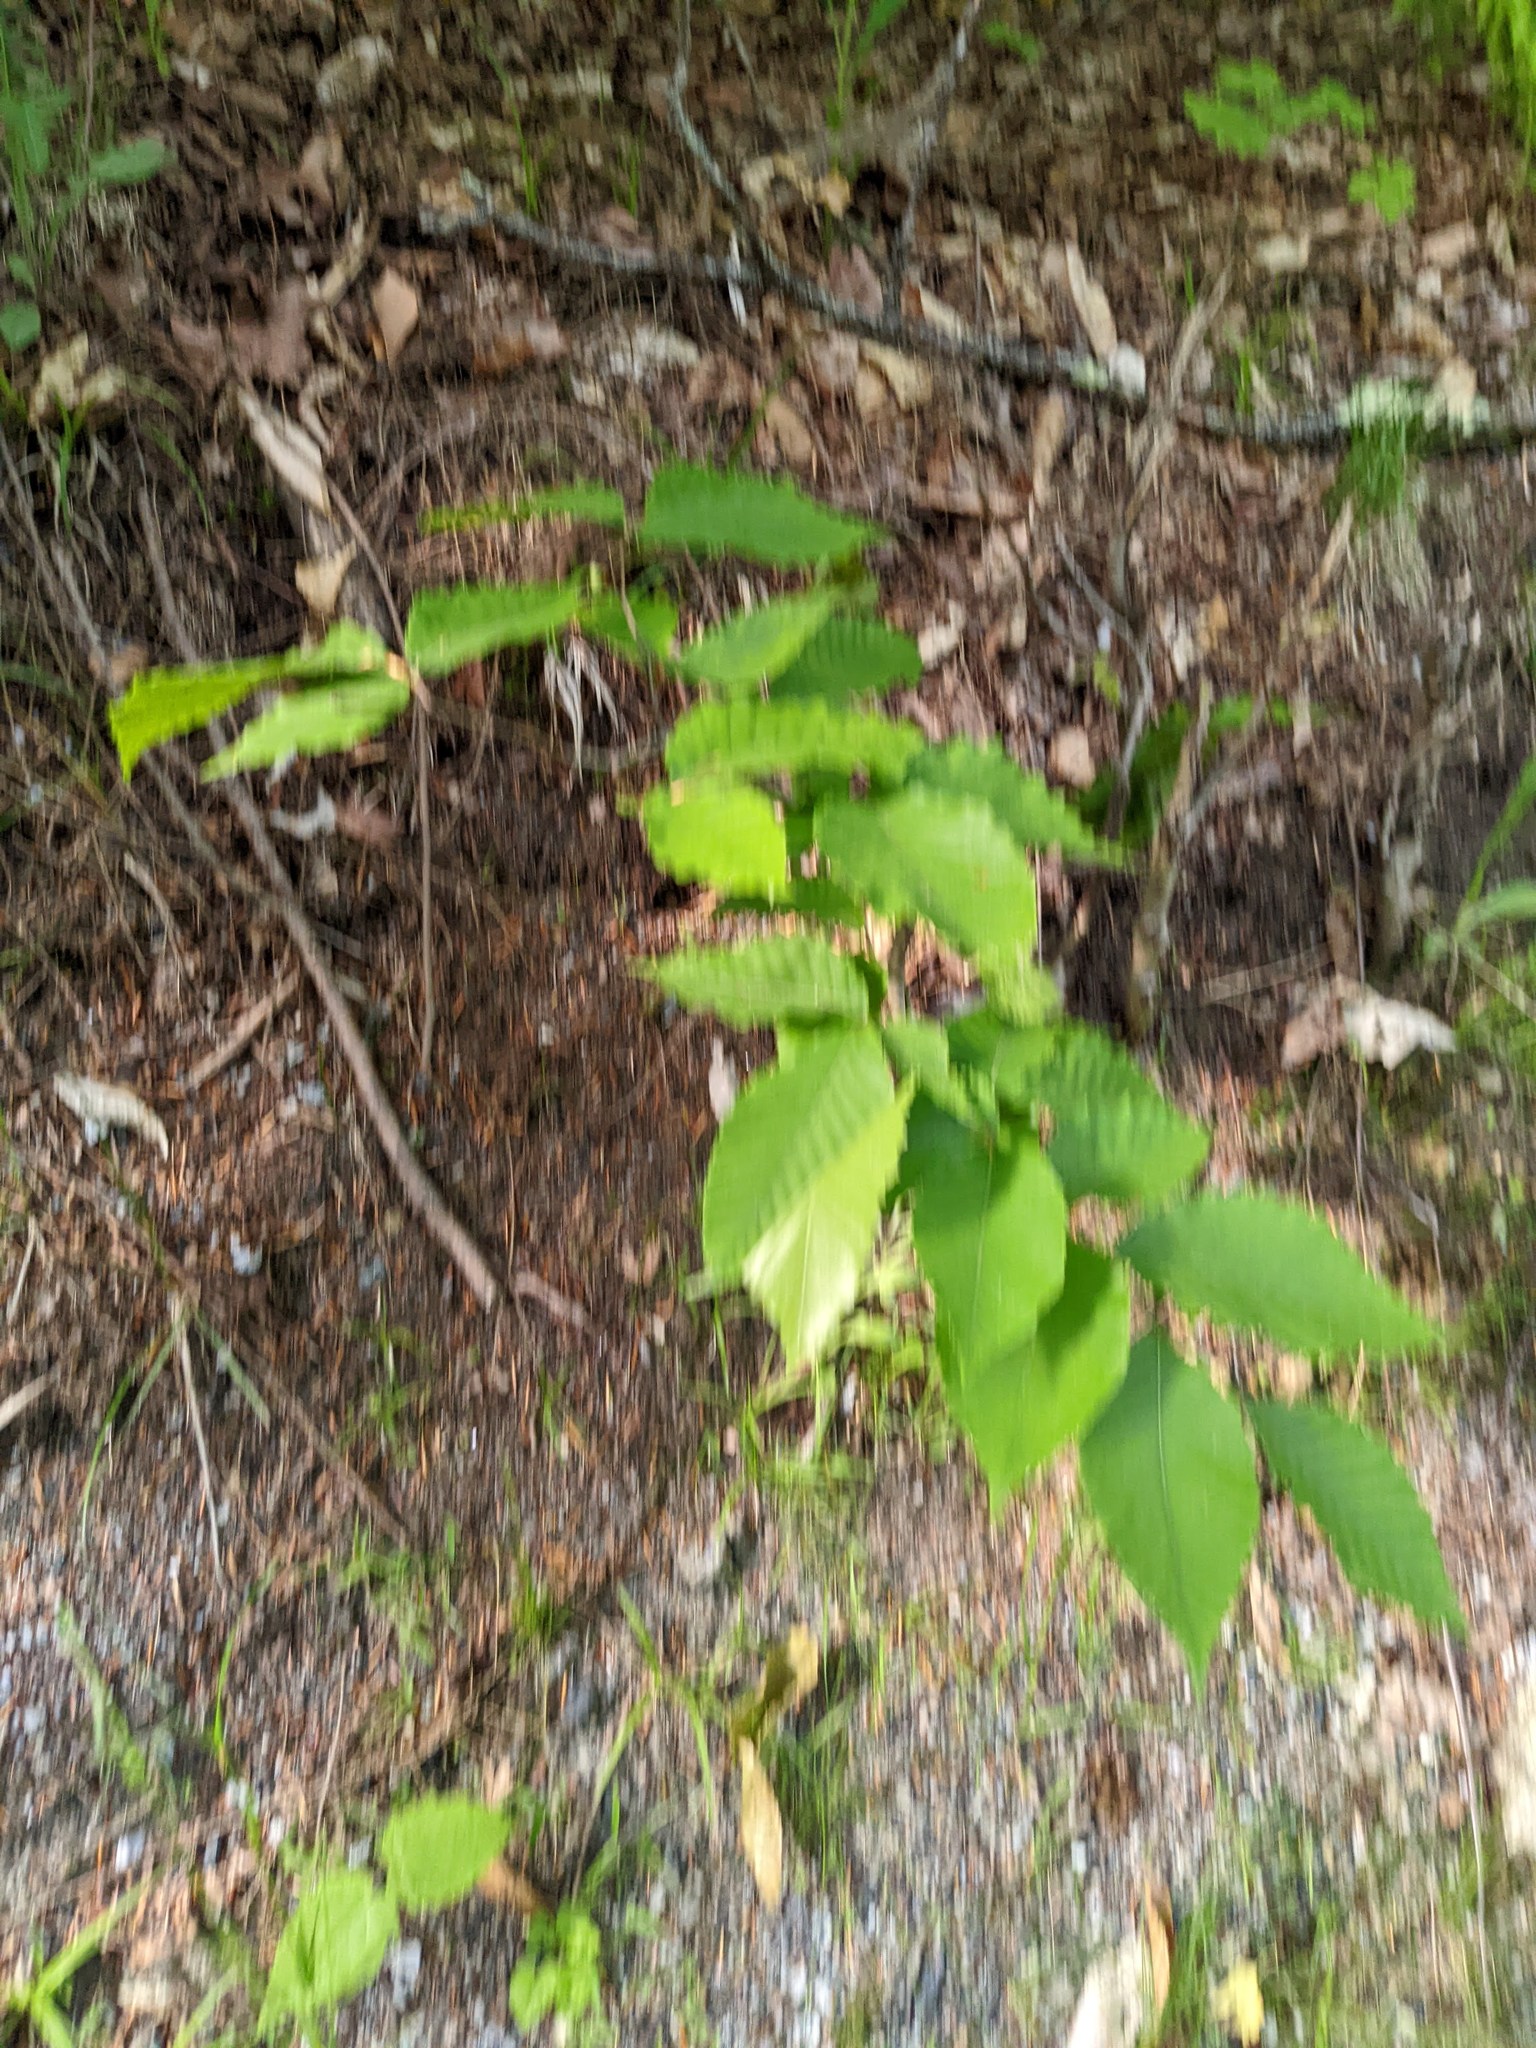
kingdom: Plantae
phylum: Tracheophyta
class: Magnoliopsida
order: Fagales
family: Fagaceae
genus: Fagus
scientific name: Fagus grandifolia
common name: American beech
